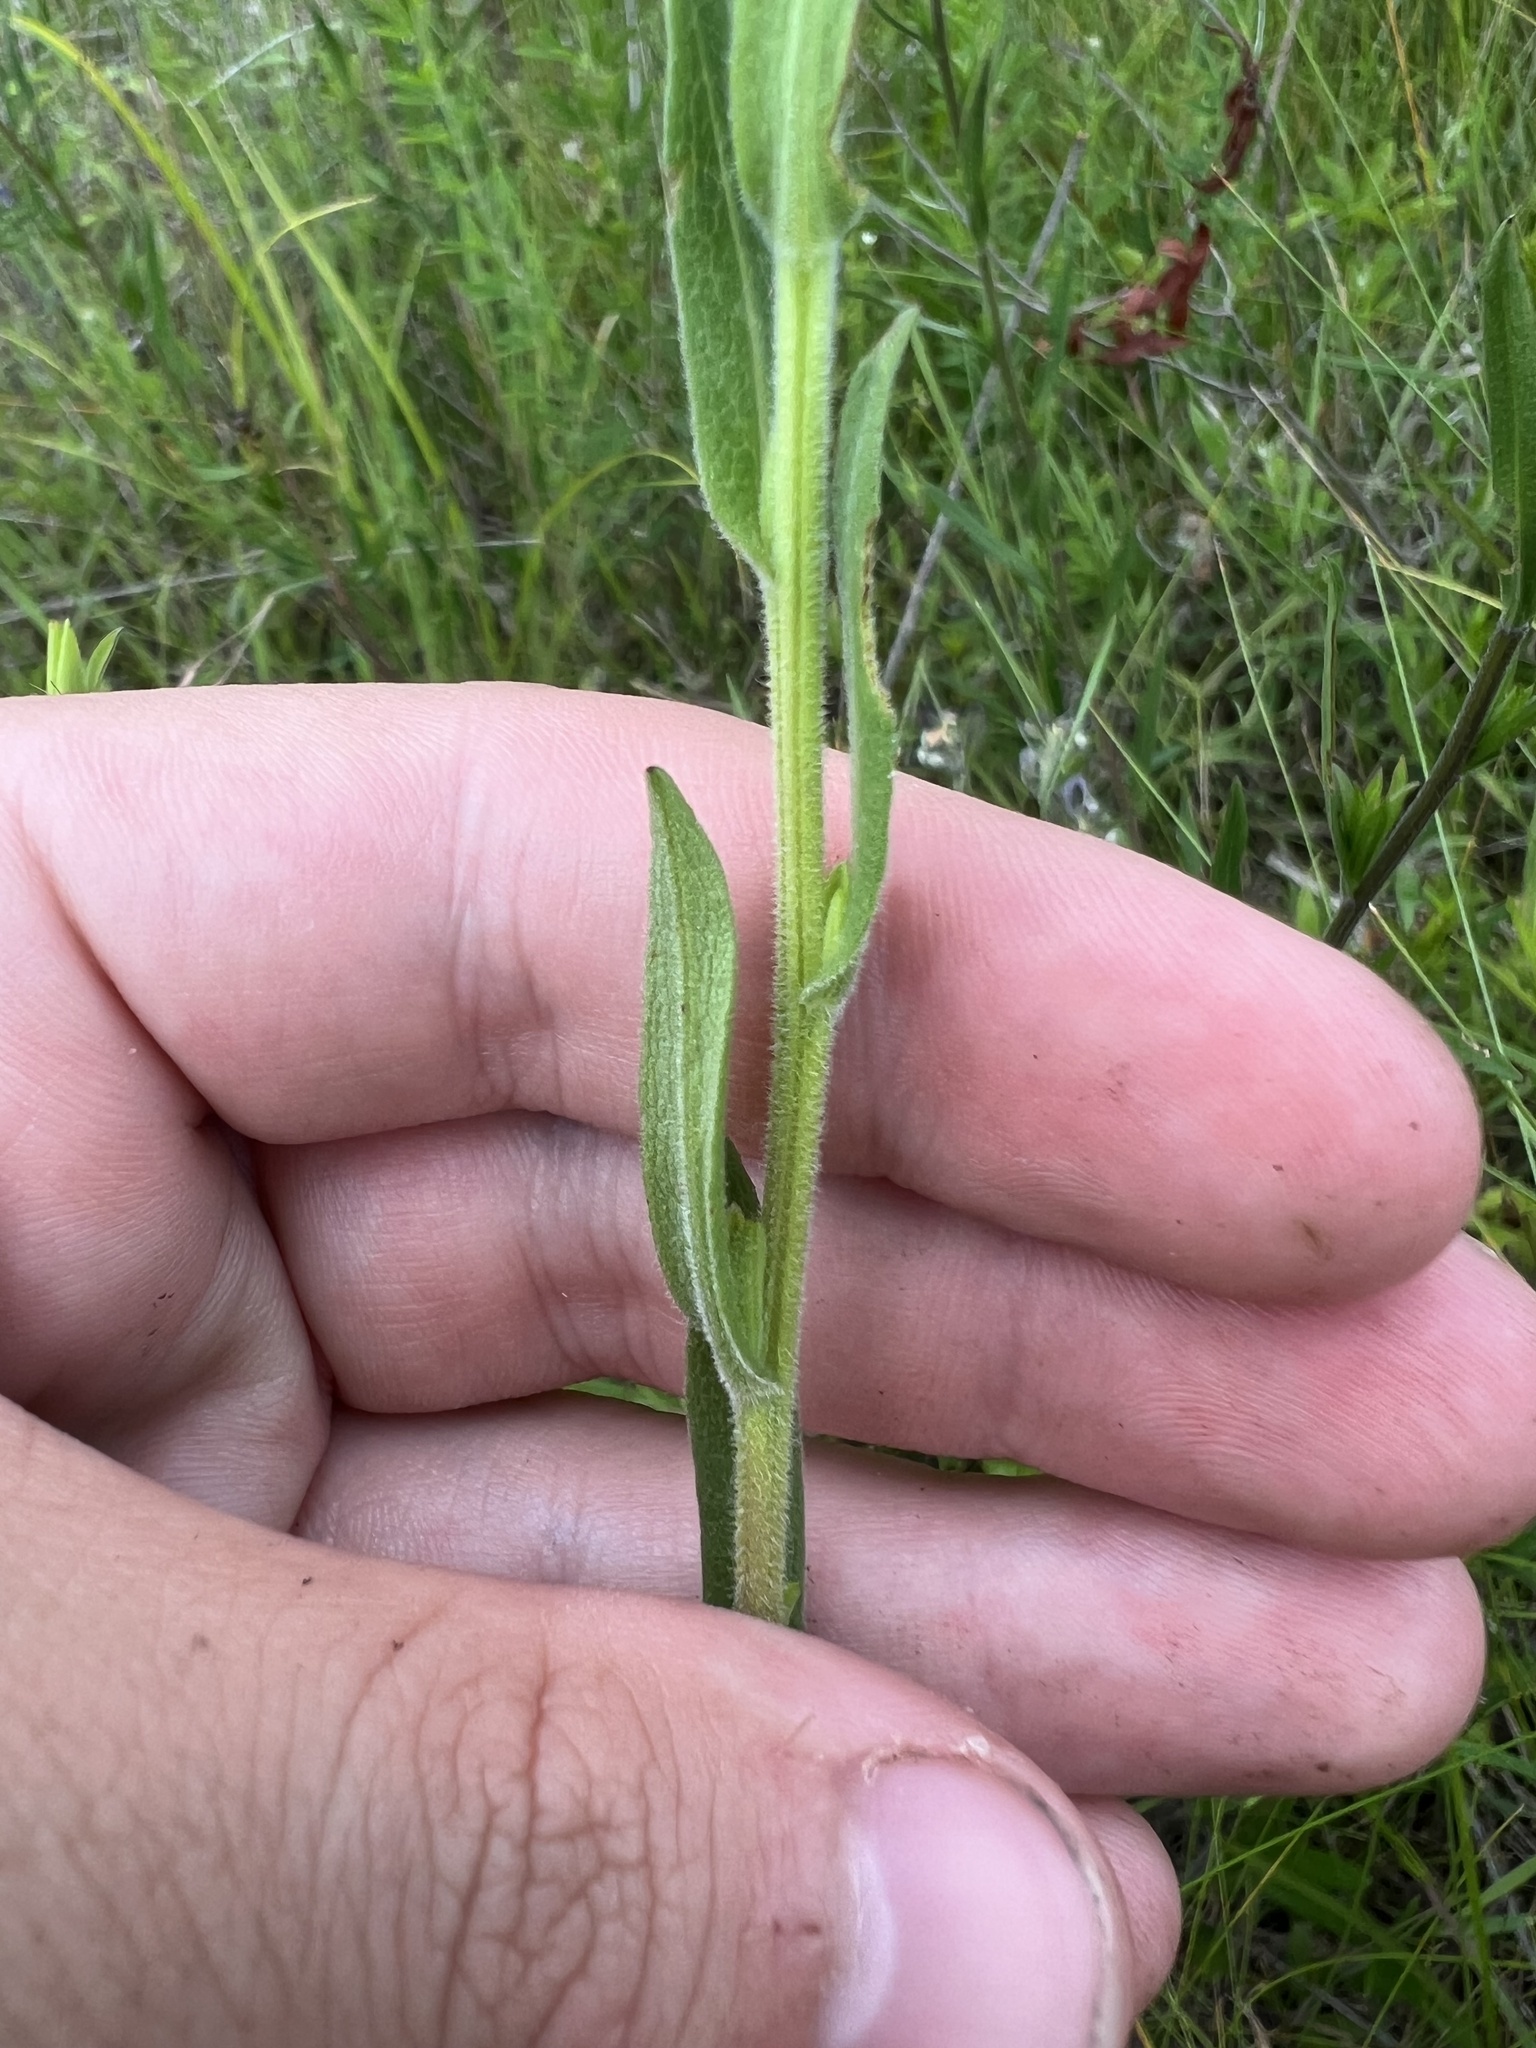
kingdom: Plantae
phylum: Tracheophyta
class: Magnoliopsida
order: Myrtales
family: Onagraceae
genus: Ludwigia
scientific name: Ludwigia hirtella
